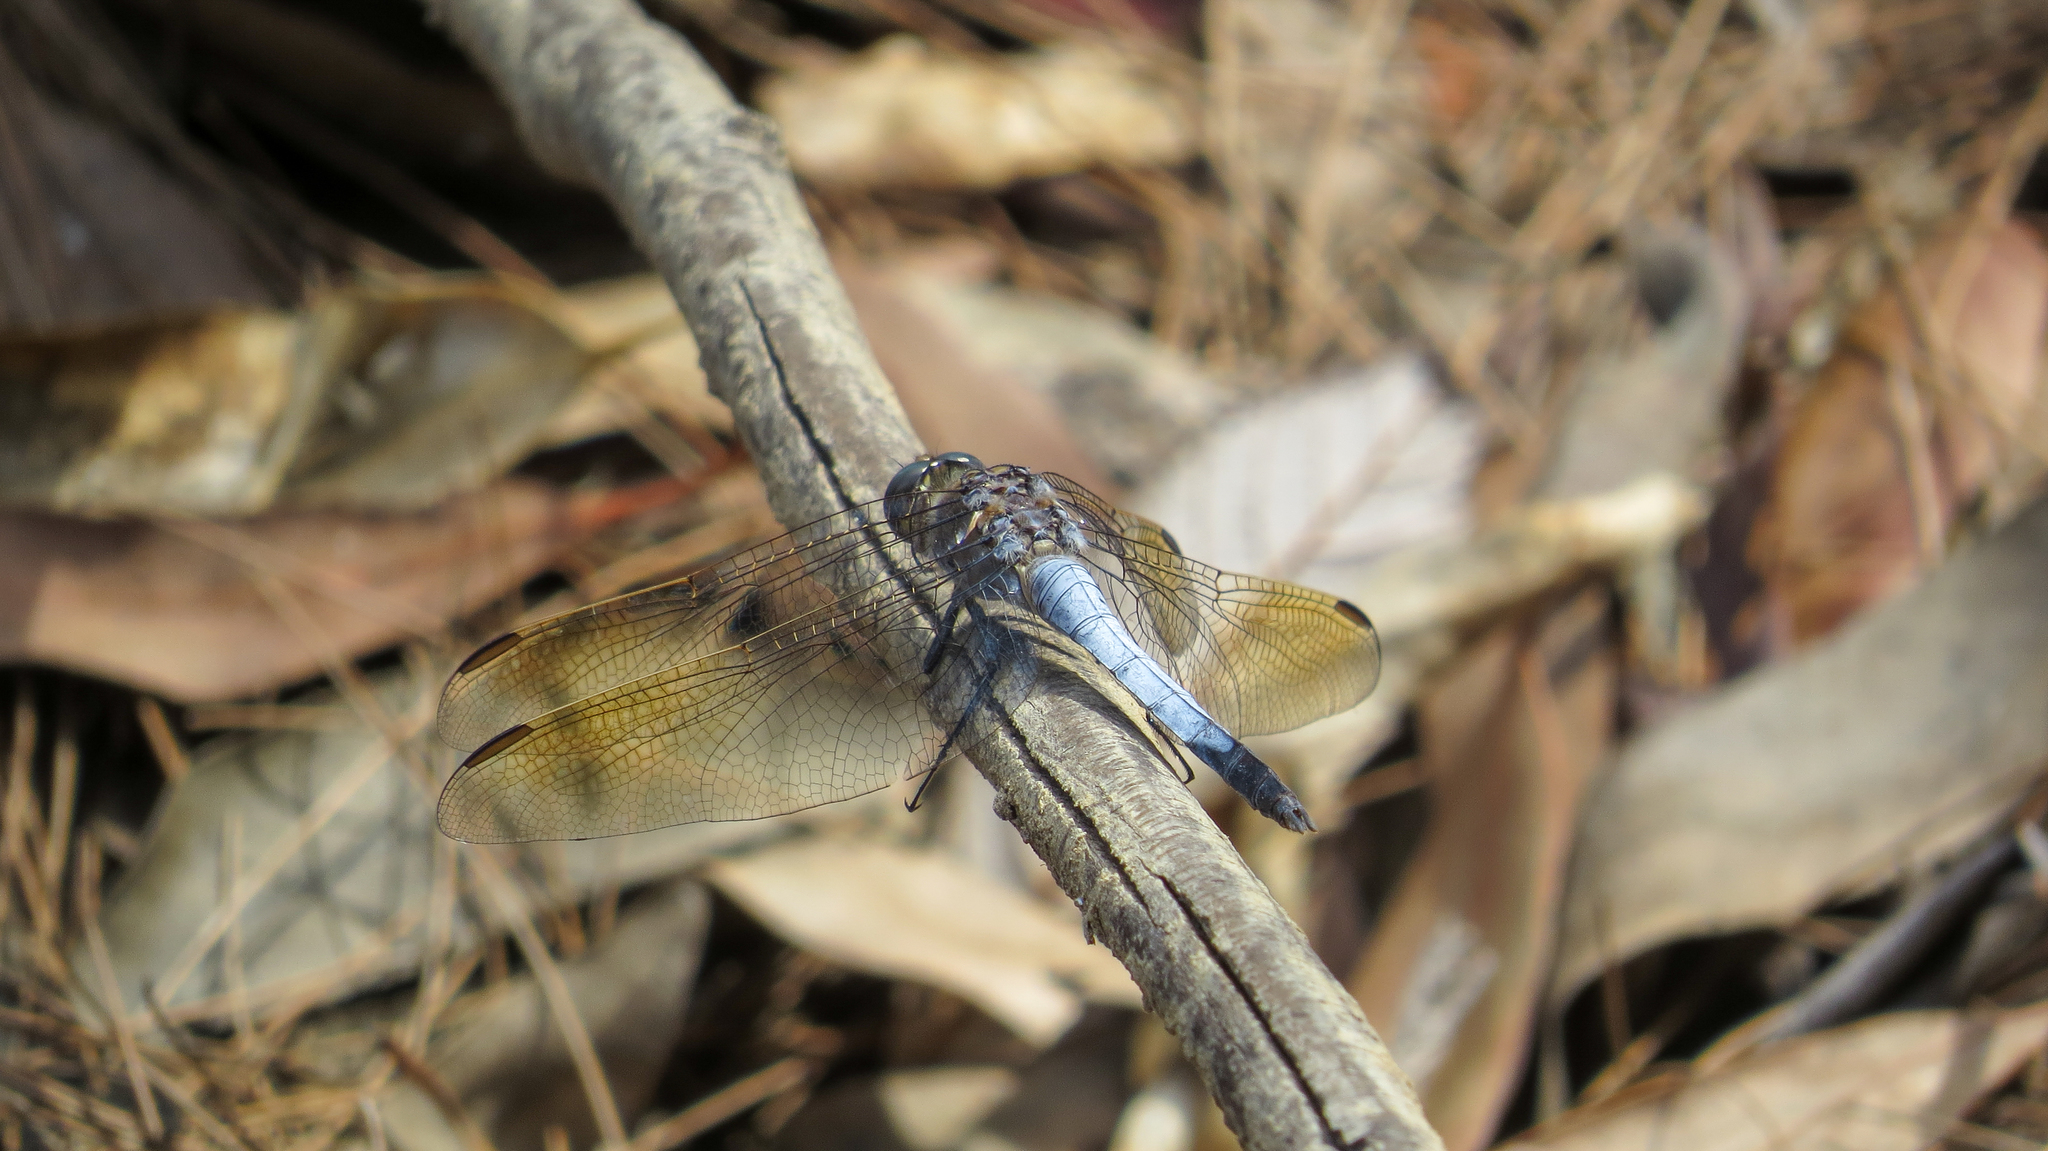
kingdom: Animalia
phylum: Arthropoda
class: Insecta
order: Odonata
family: Libellulidae
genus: Orthetrum
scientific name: Orthetrum caledonicum
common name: Blue skimmer
